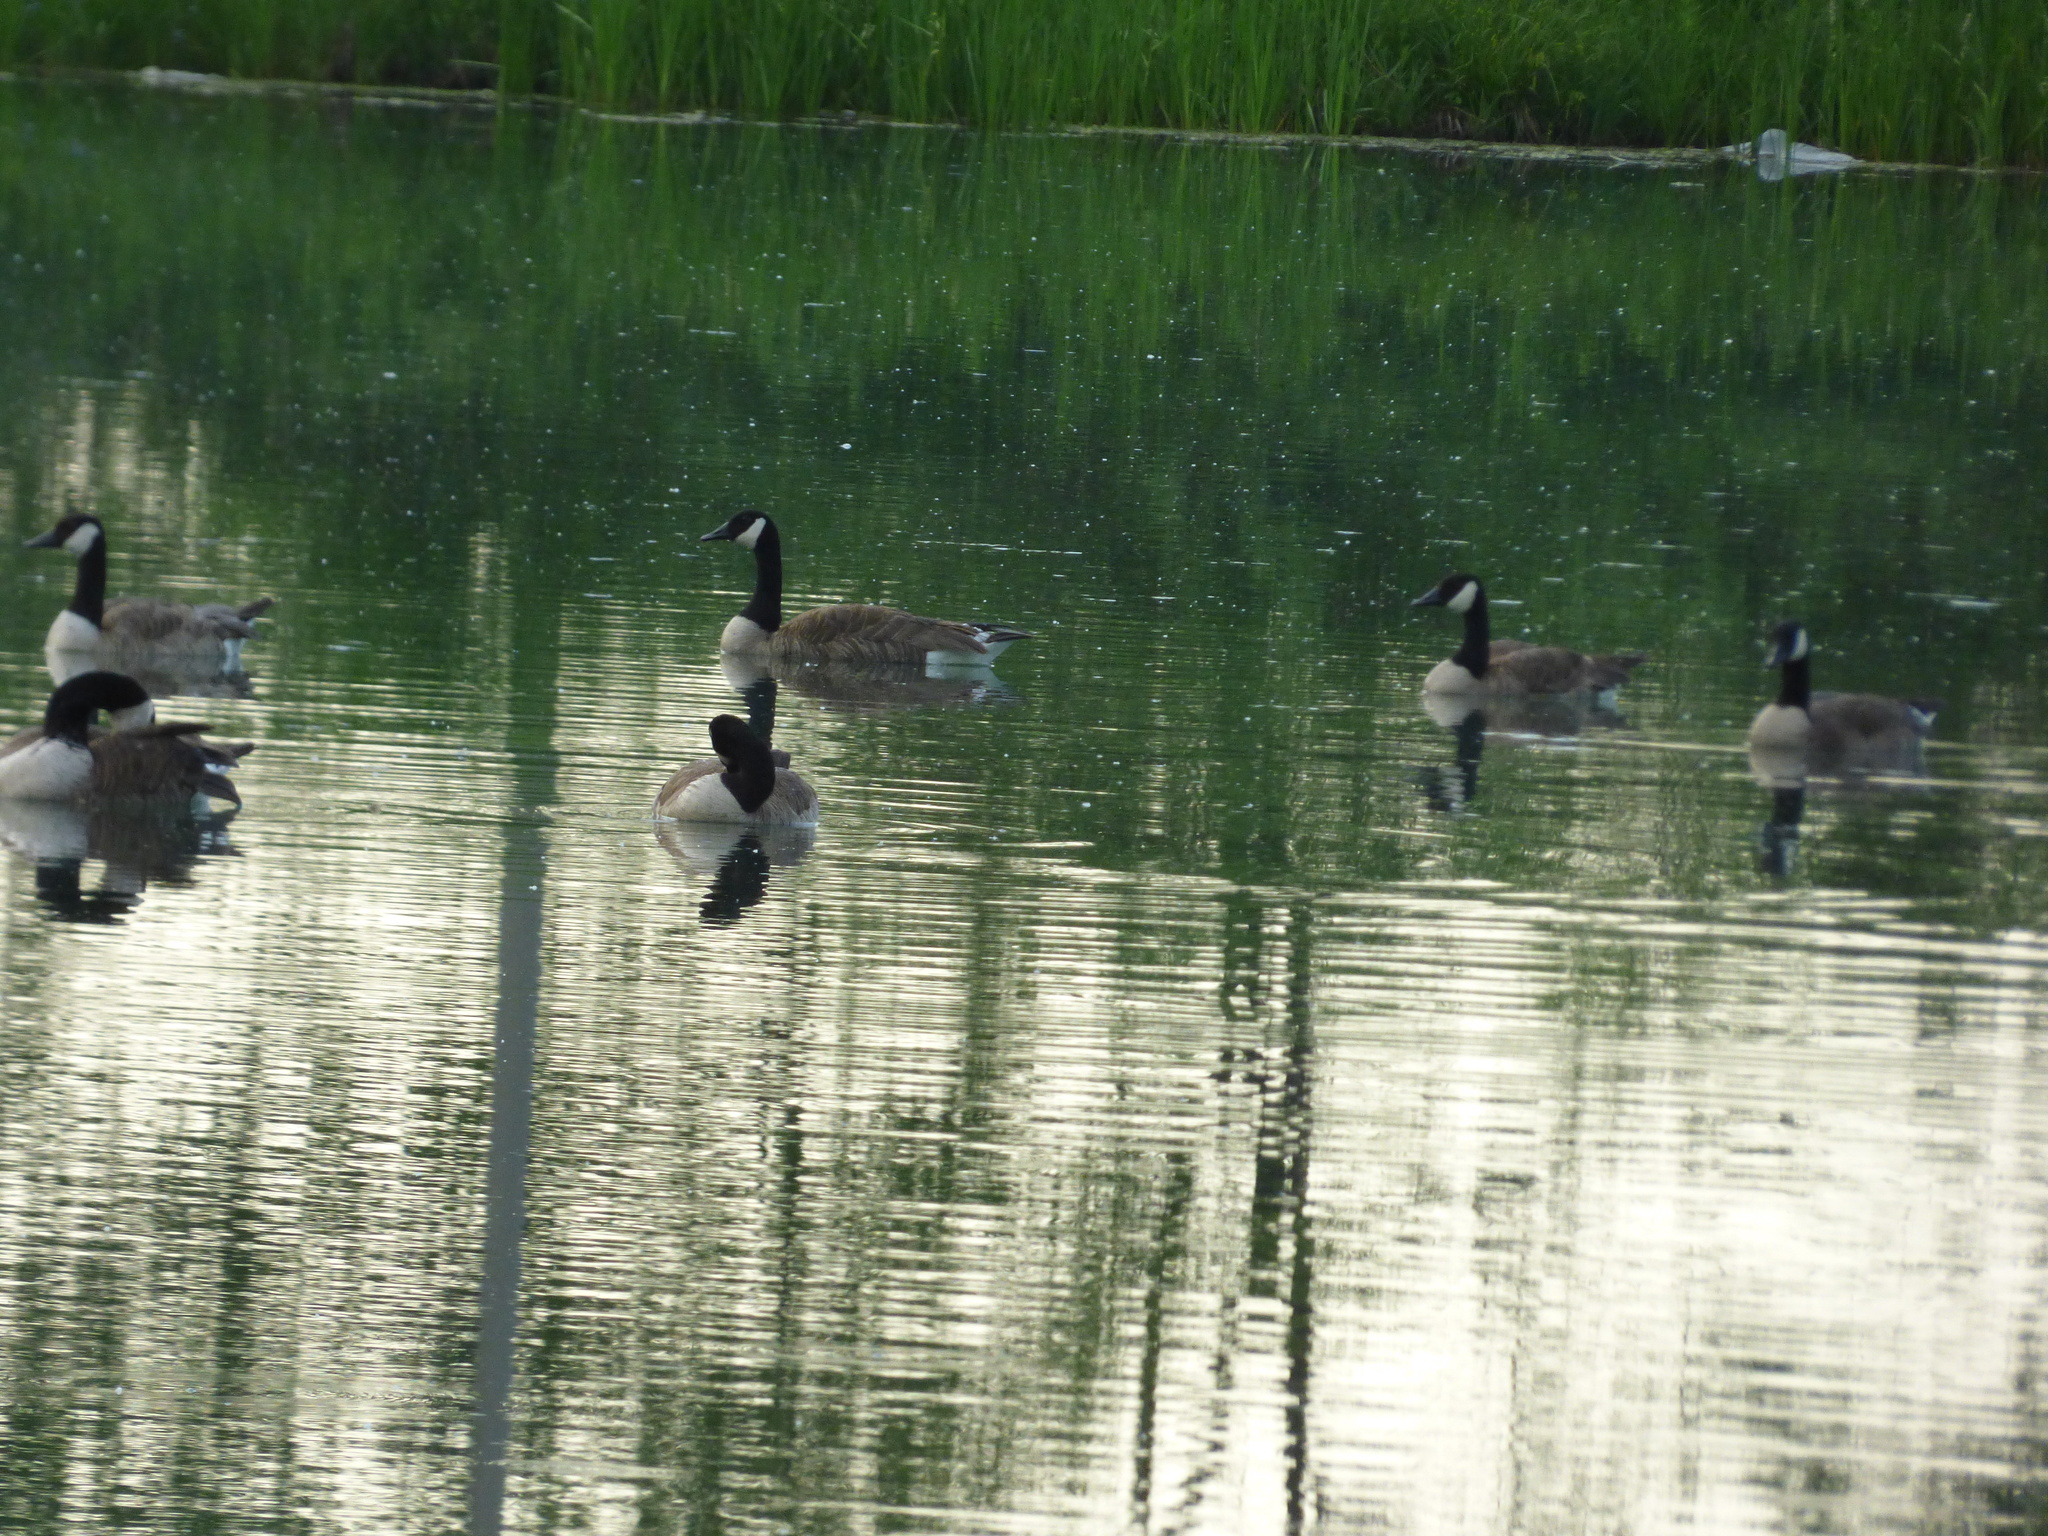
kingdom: Animalia
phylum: Chordata
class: Aves
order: Anseriformes
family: Anatidae
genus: Branta
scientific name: Branta canadensis
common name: Canada goose
